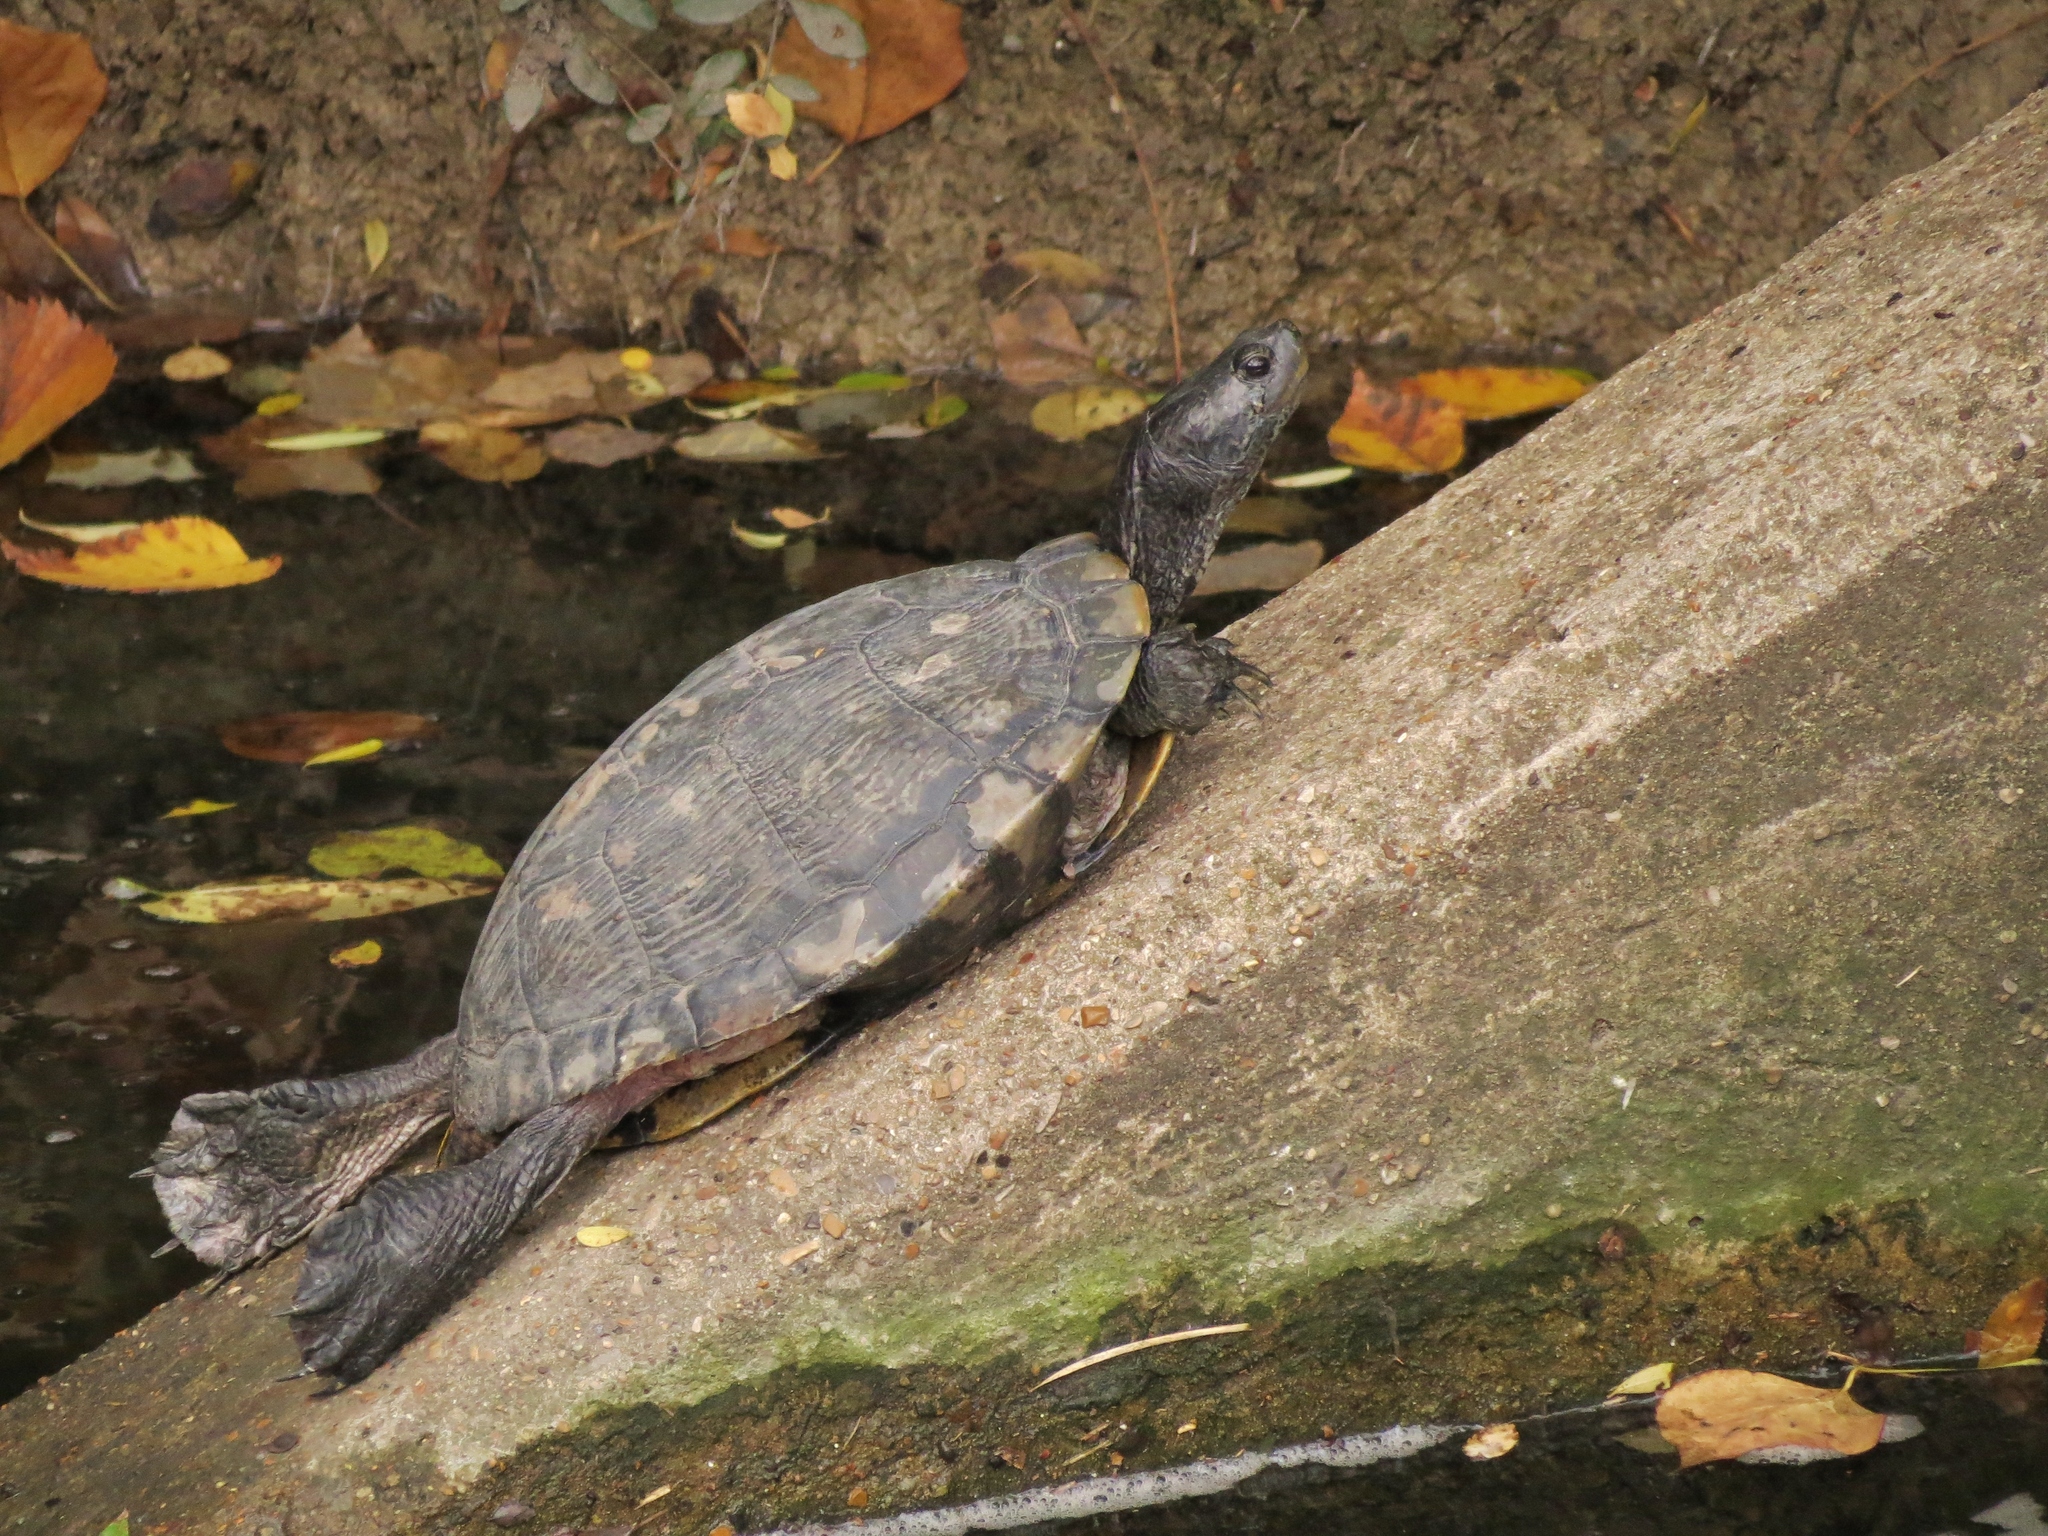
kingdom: Animalia
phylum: Chordata
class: Testudines
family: Emydidae
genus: Trachemys
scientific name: Trachemys scripta
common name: Slider
